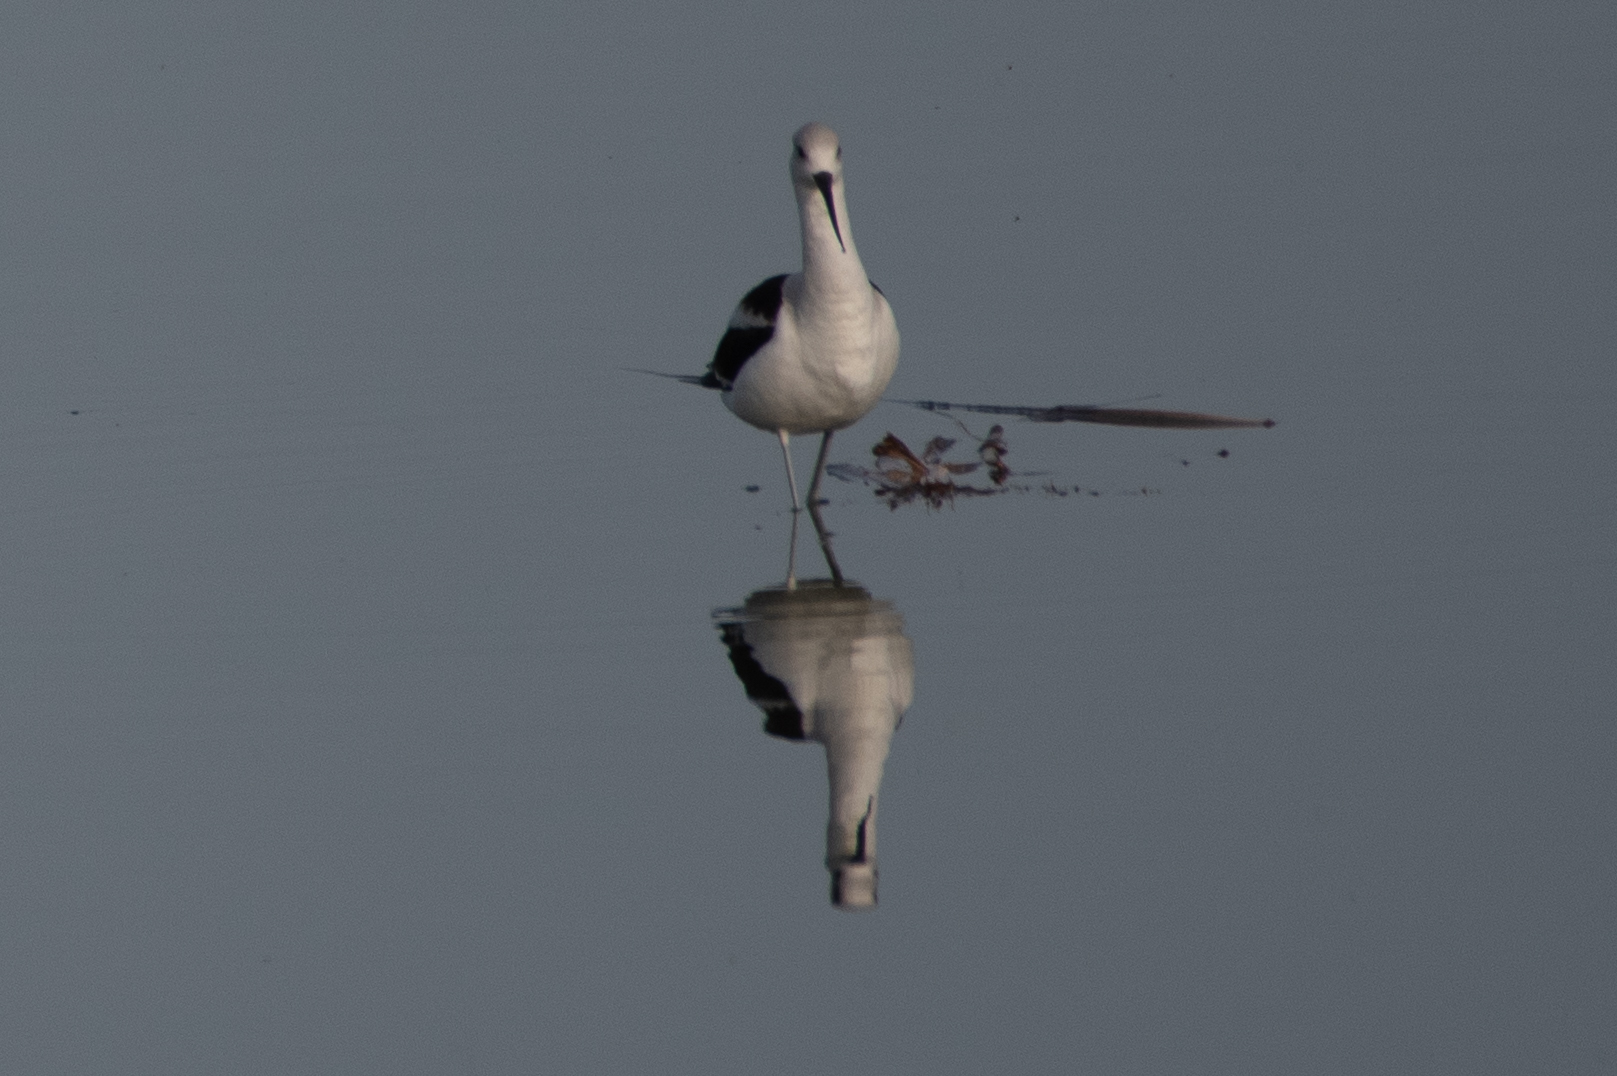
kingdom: Animalia
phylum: Chordata
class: Aves
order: Charadriiformes
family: Recurvirostridae
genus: Recurvirostra
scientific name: Recurvirostra americana
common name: American avocet
